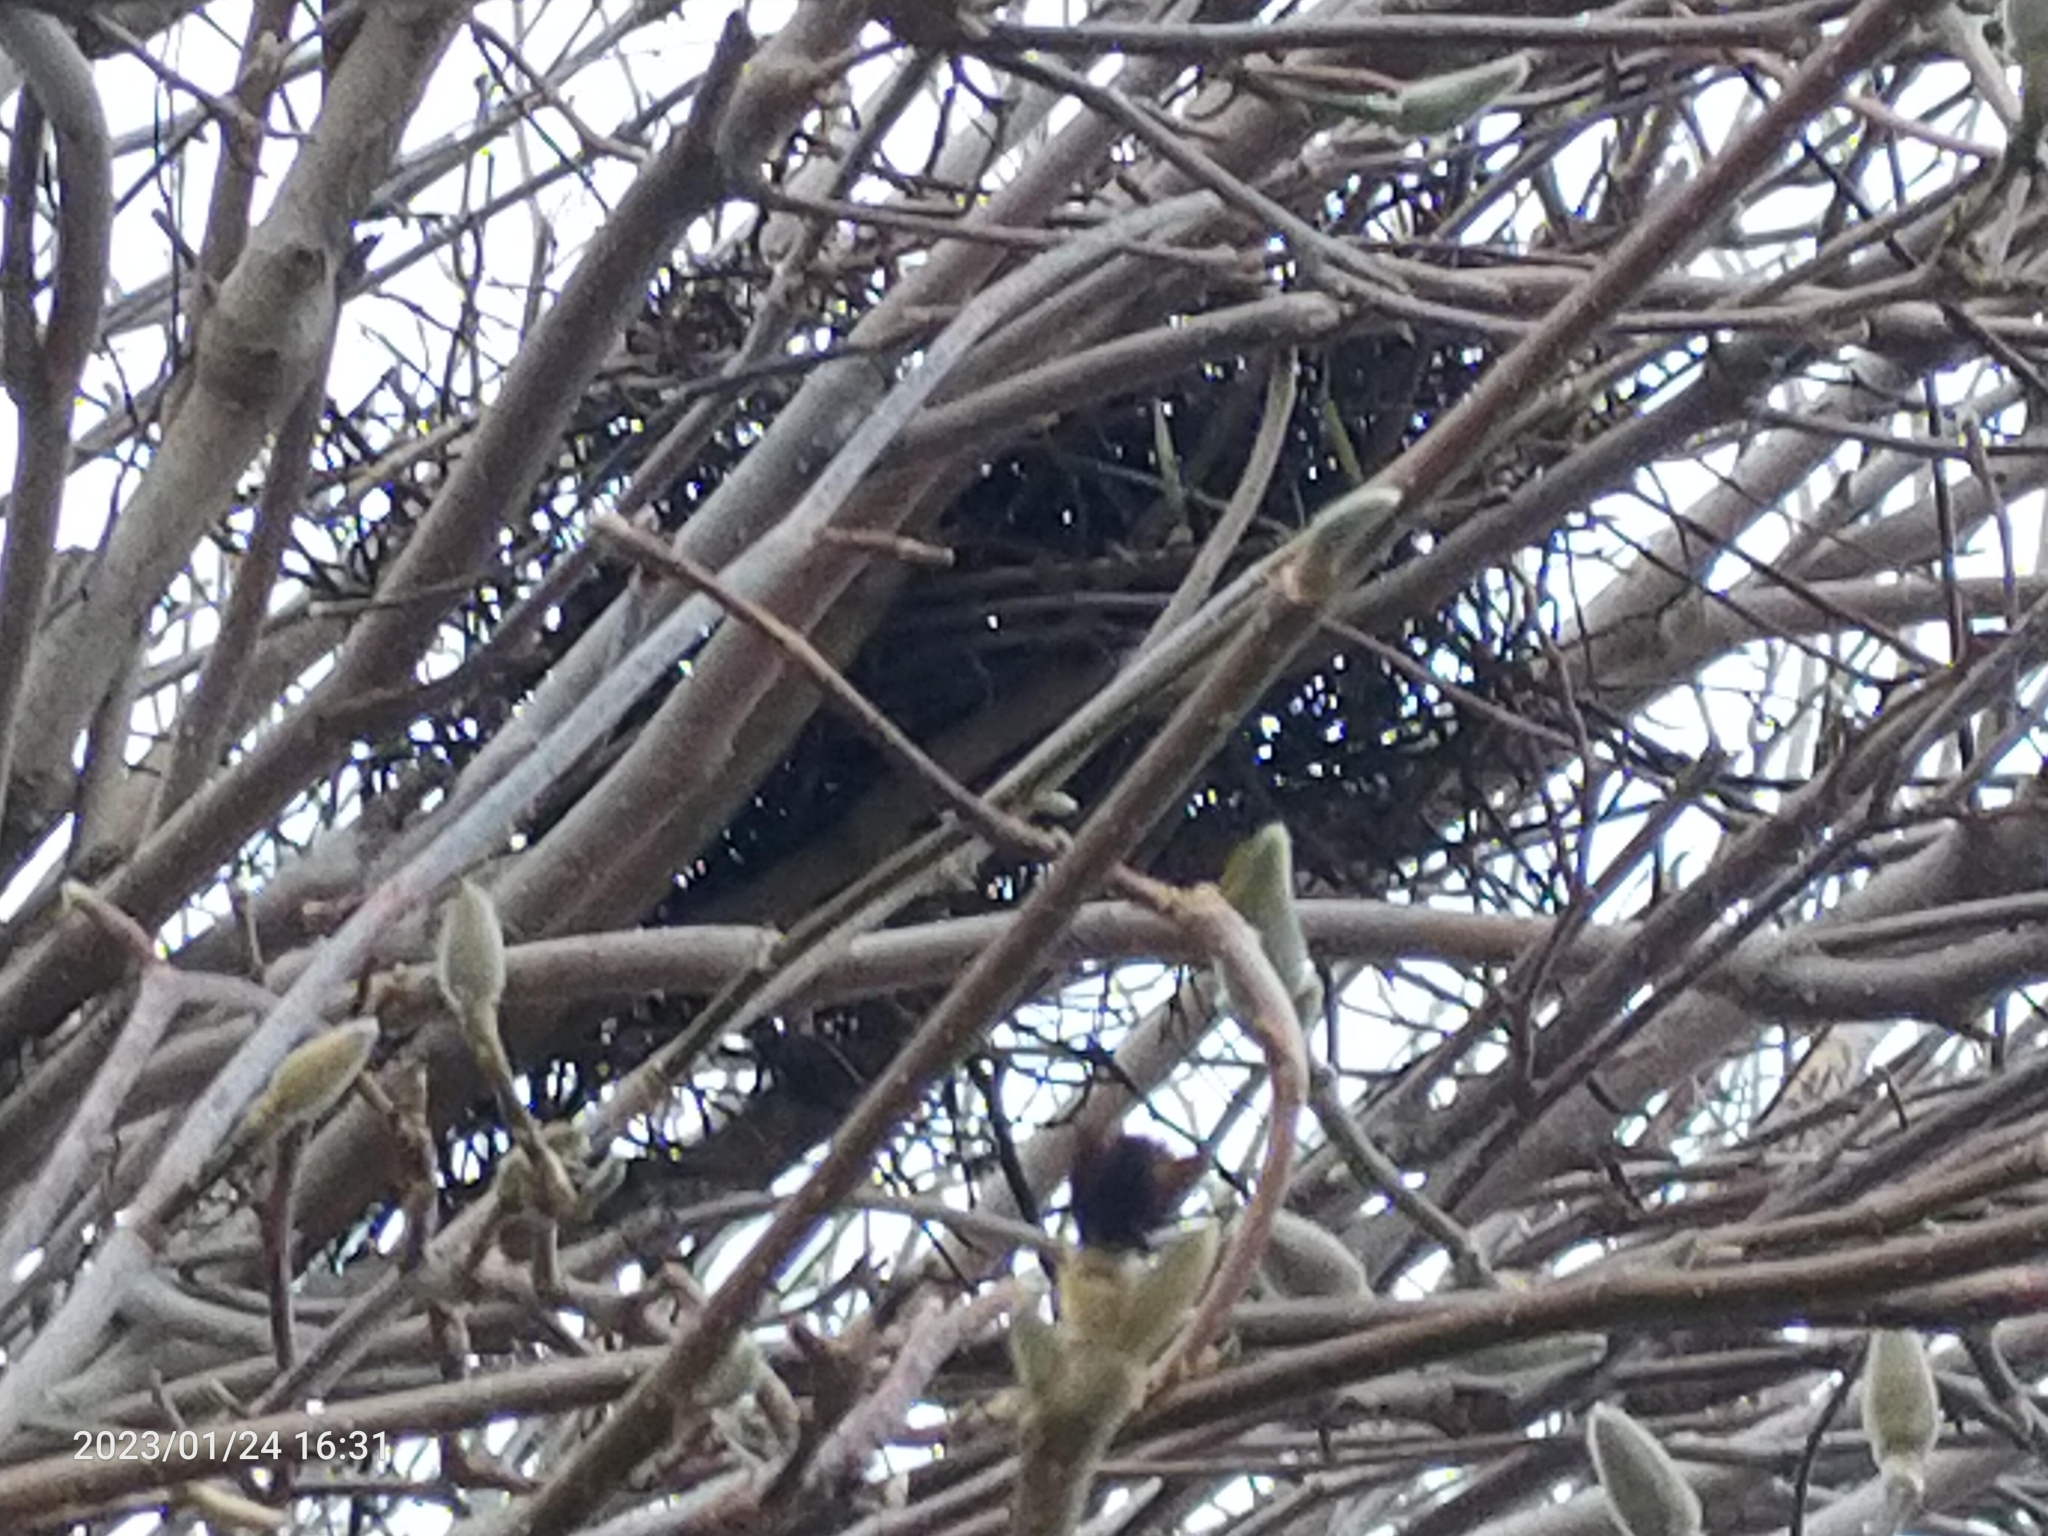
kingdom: Animalia
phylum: Chordata
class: Aves
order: Passeriformes
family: Paridae
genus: Cyanistes
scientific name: Cyanistes caeruleus
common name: Eurasian blue tit
